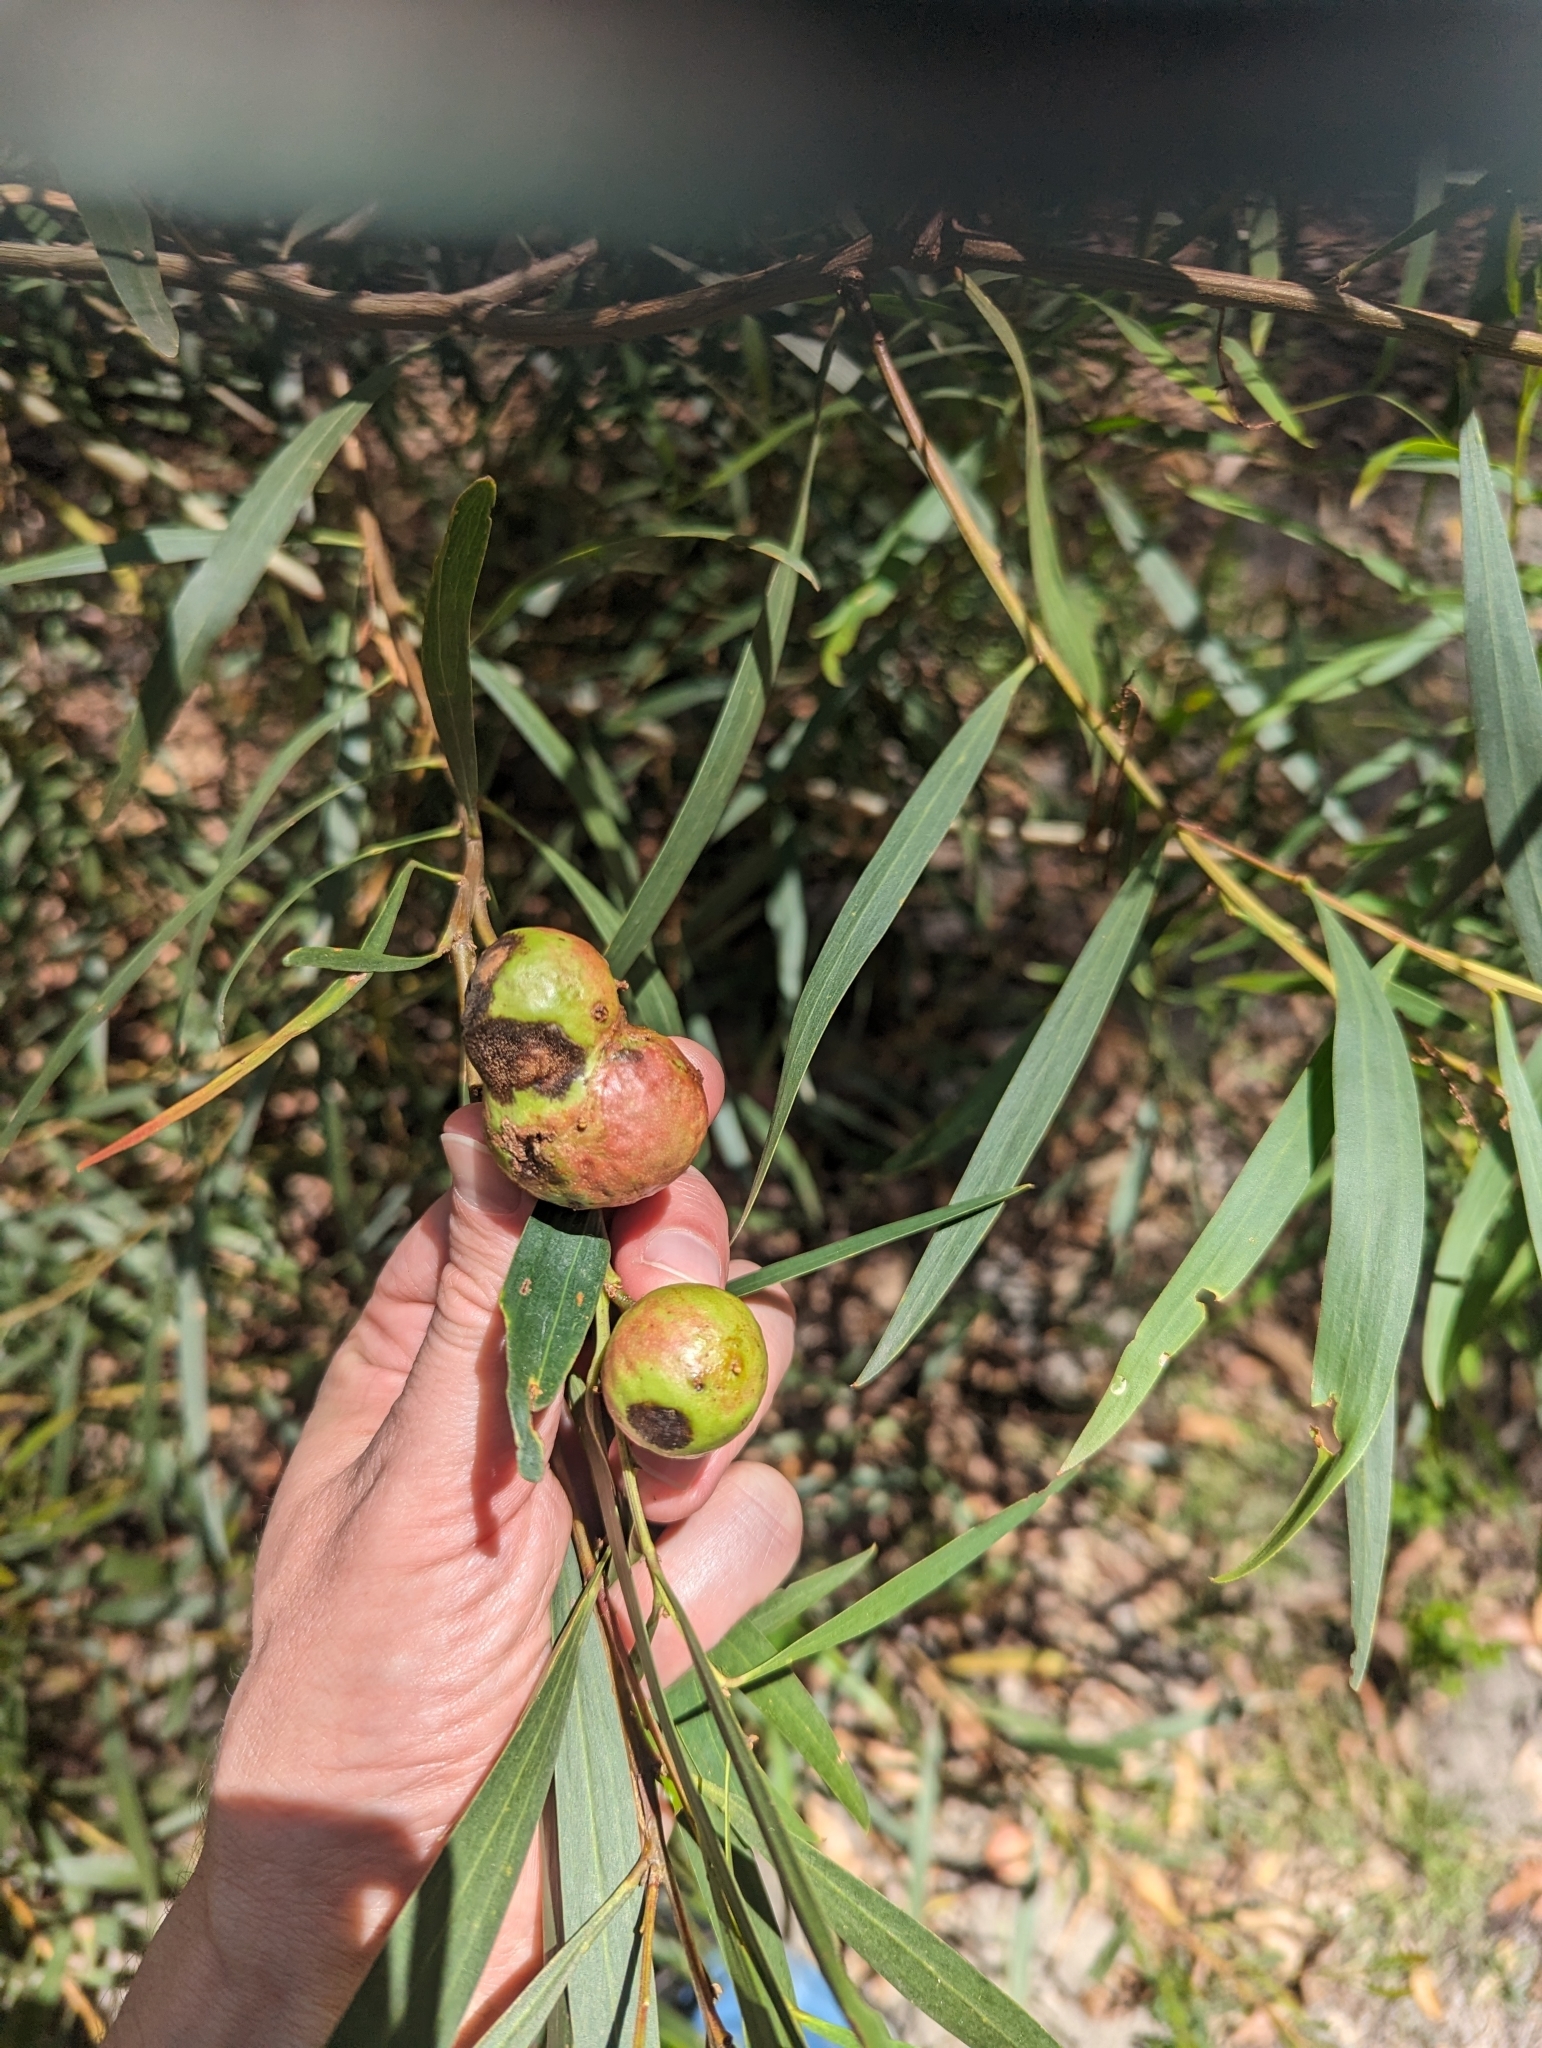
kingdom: Animalia
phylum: Arthropoda
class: Insecta
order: Hymenoptera
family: Pteromalidae
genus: Trichilogaster
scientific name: Trichilogaster acaciaelongifoliae
